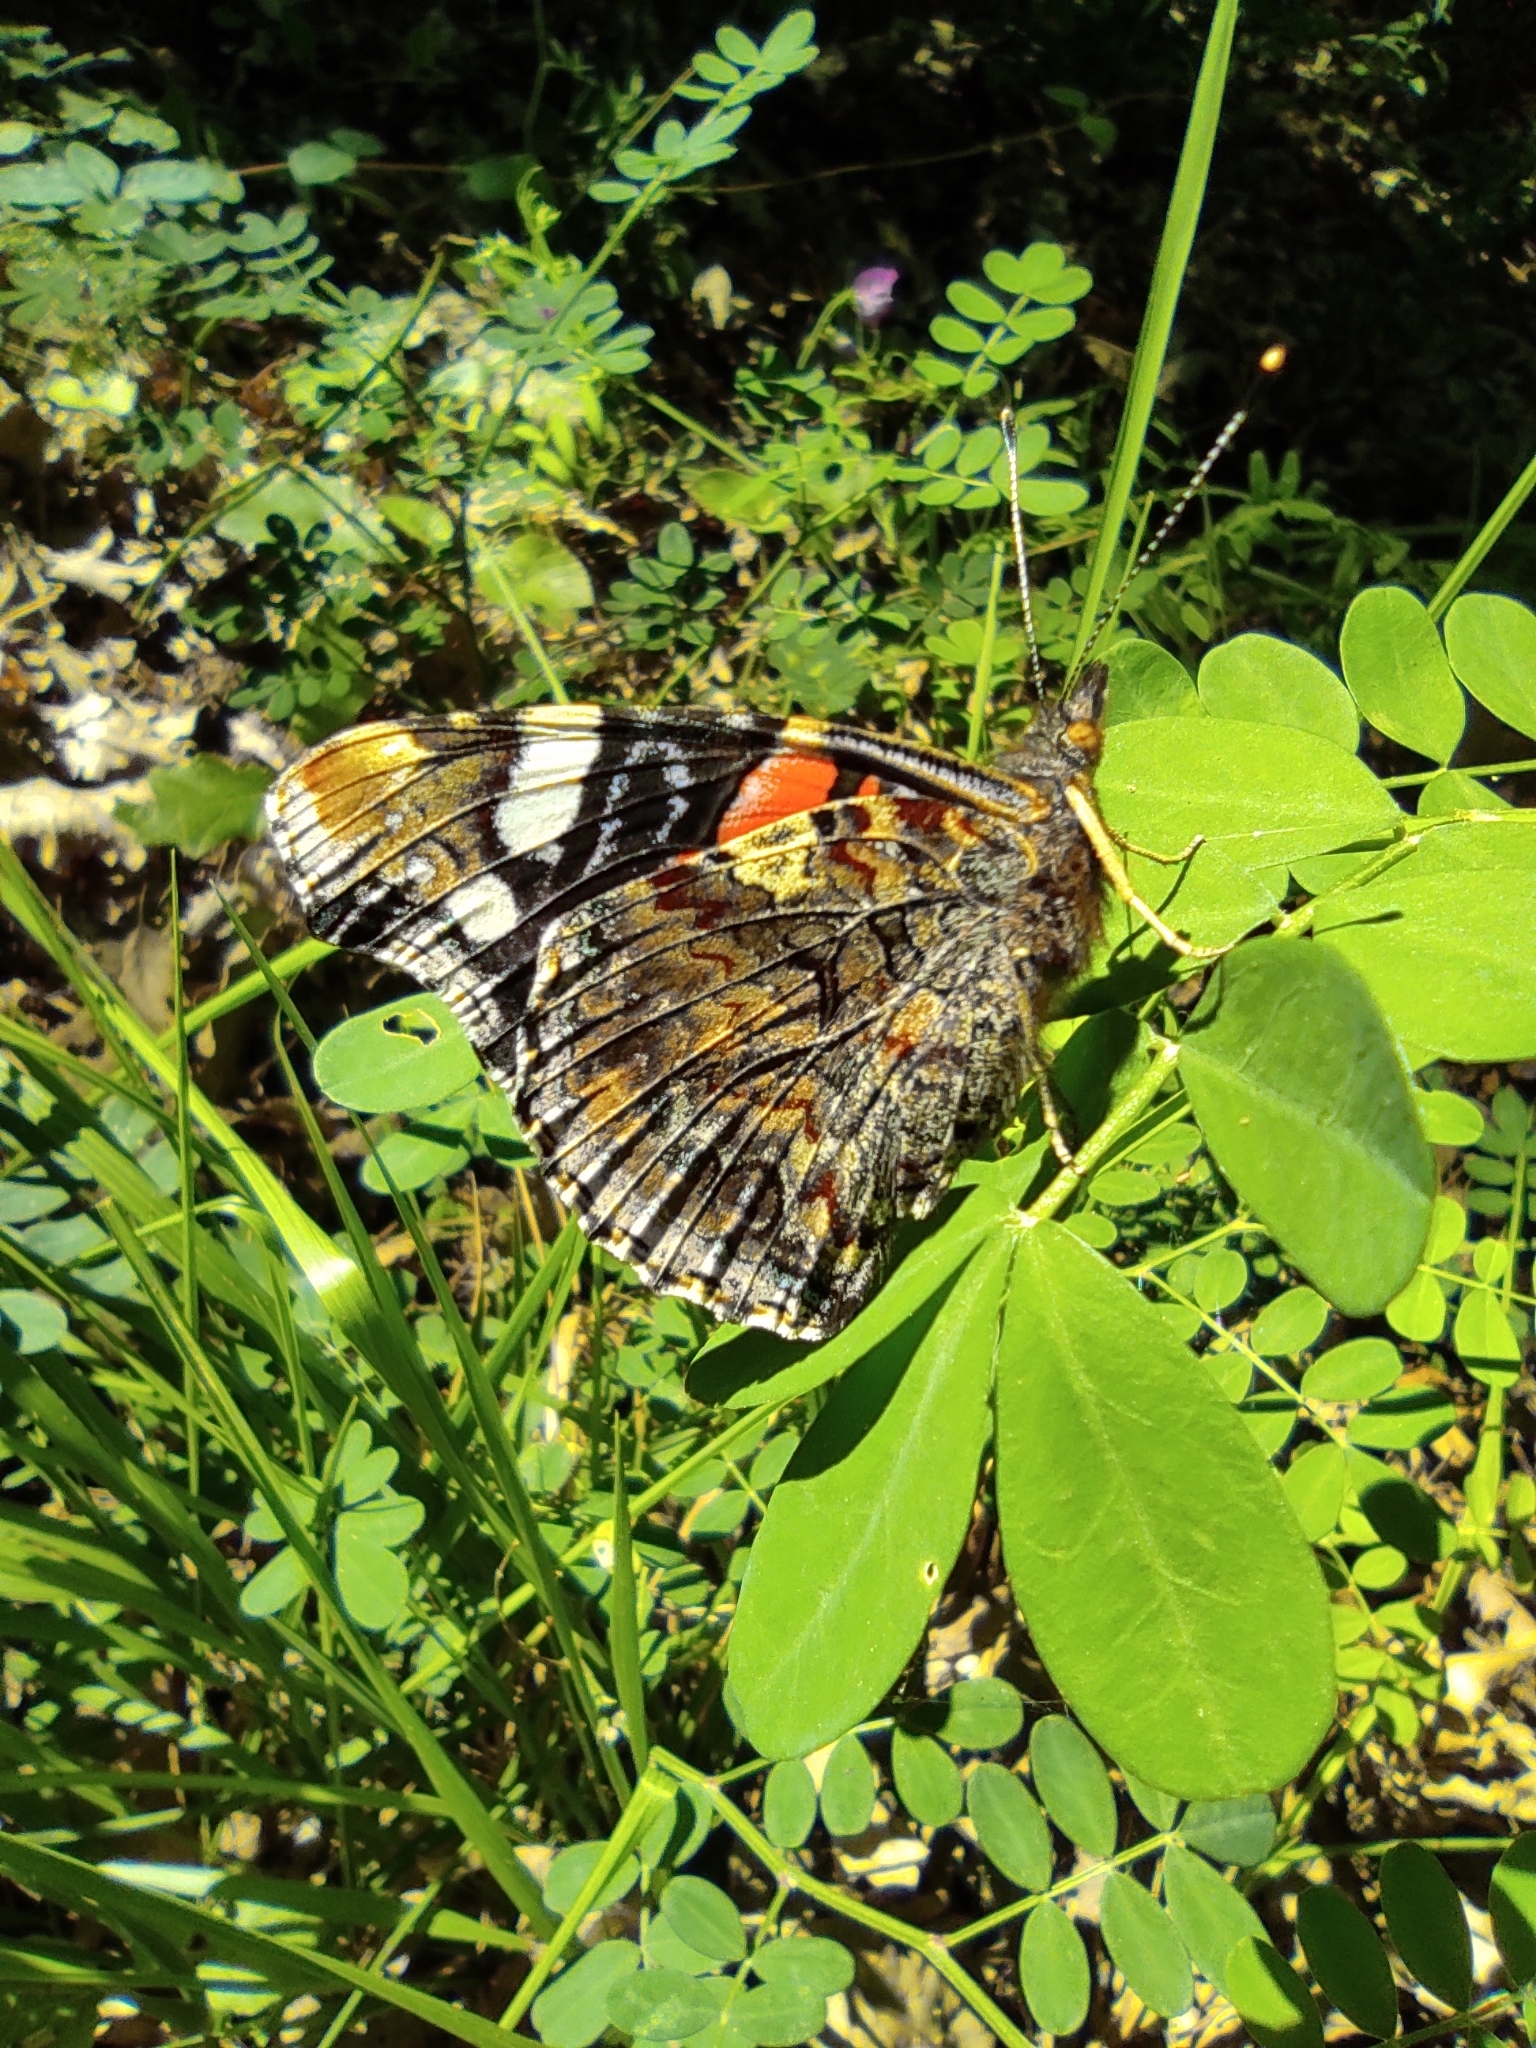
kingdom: Animalia
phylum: Arthropoda
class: Insecta
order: Lepidoptera
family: Nymphalidae
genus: Vanessa
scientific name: Vanessa atalanta
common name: Red admiral
